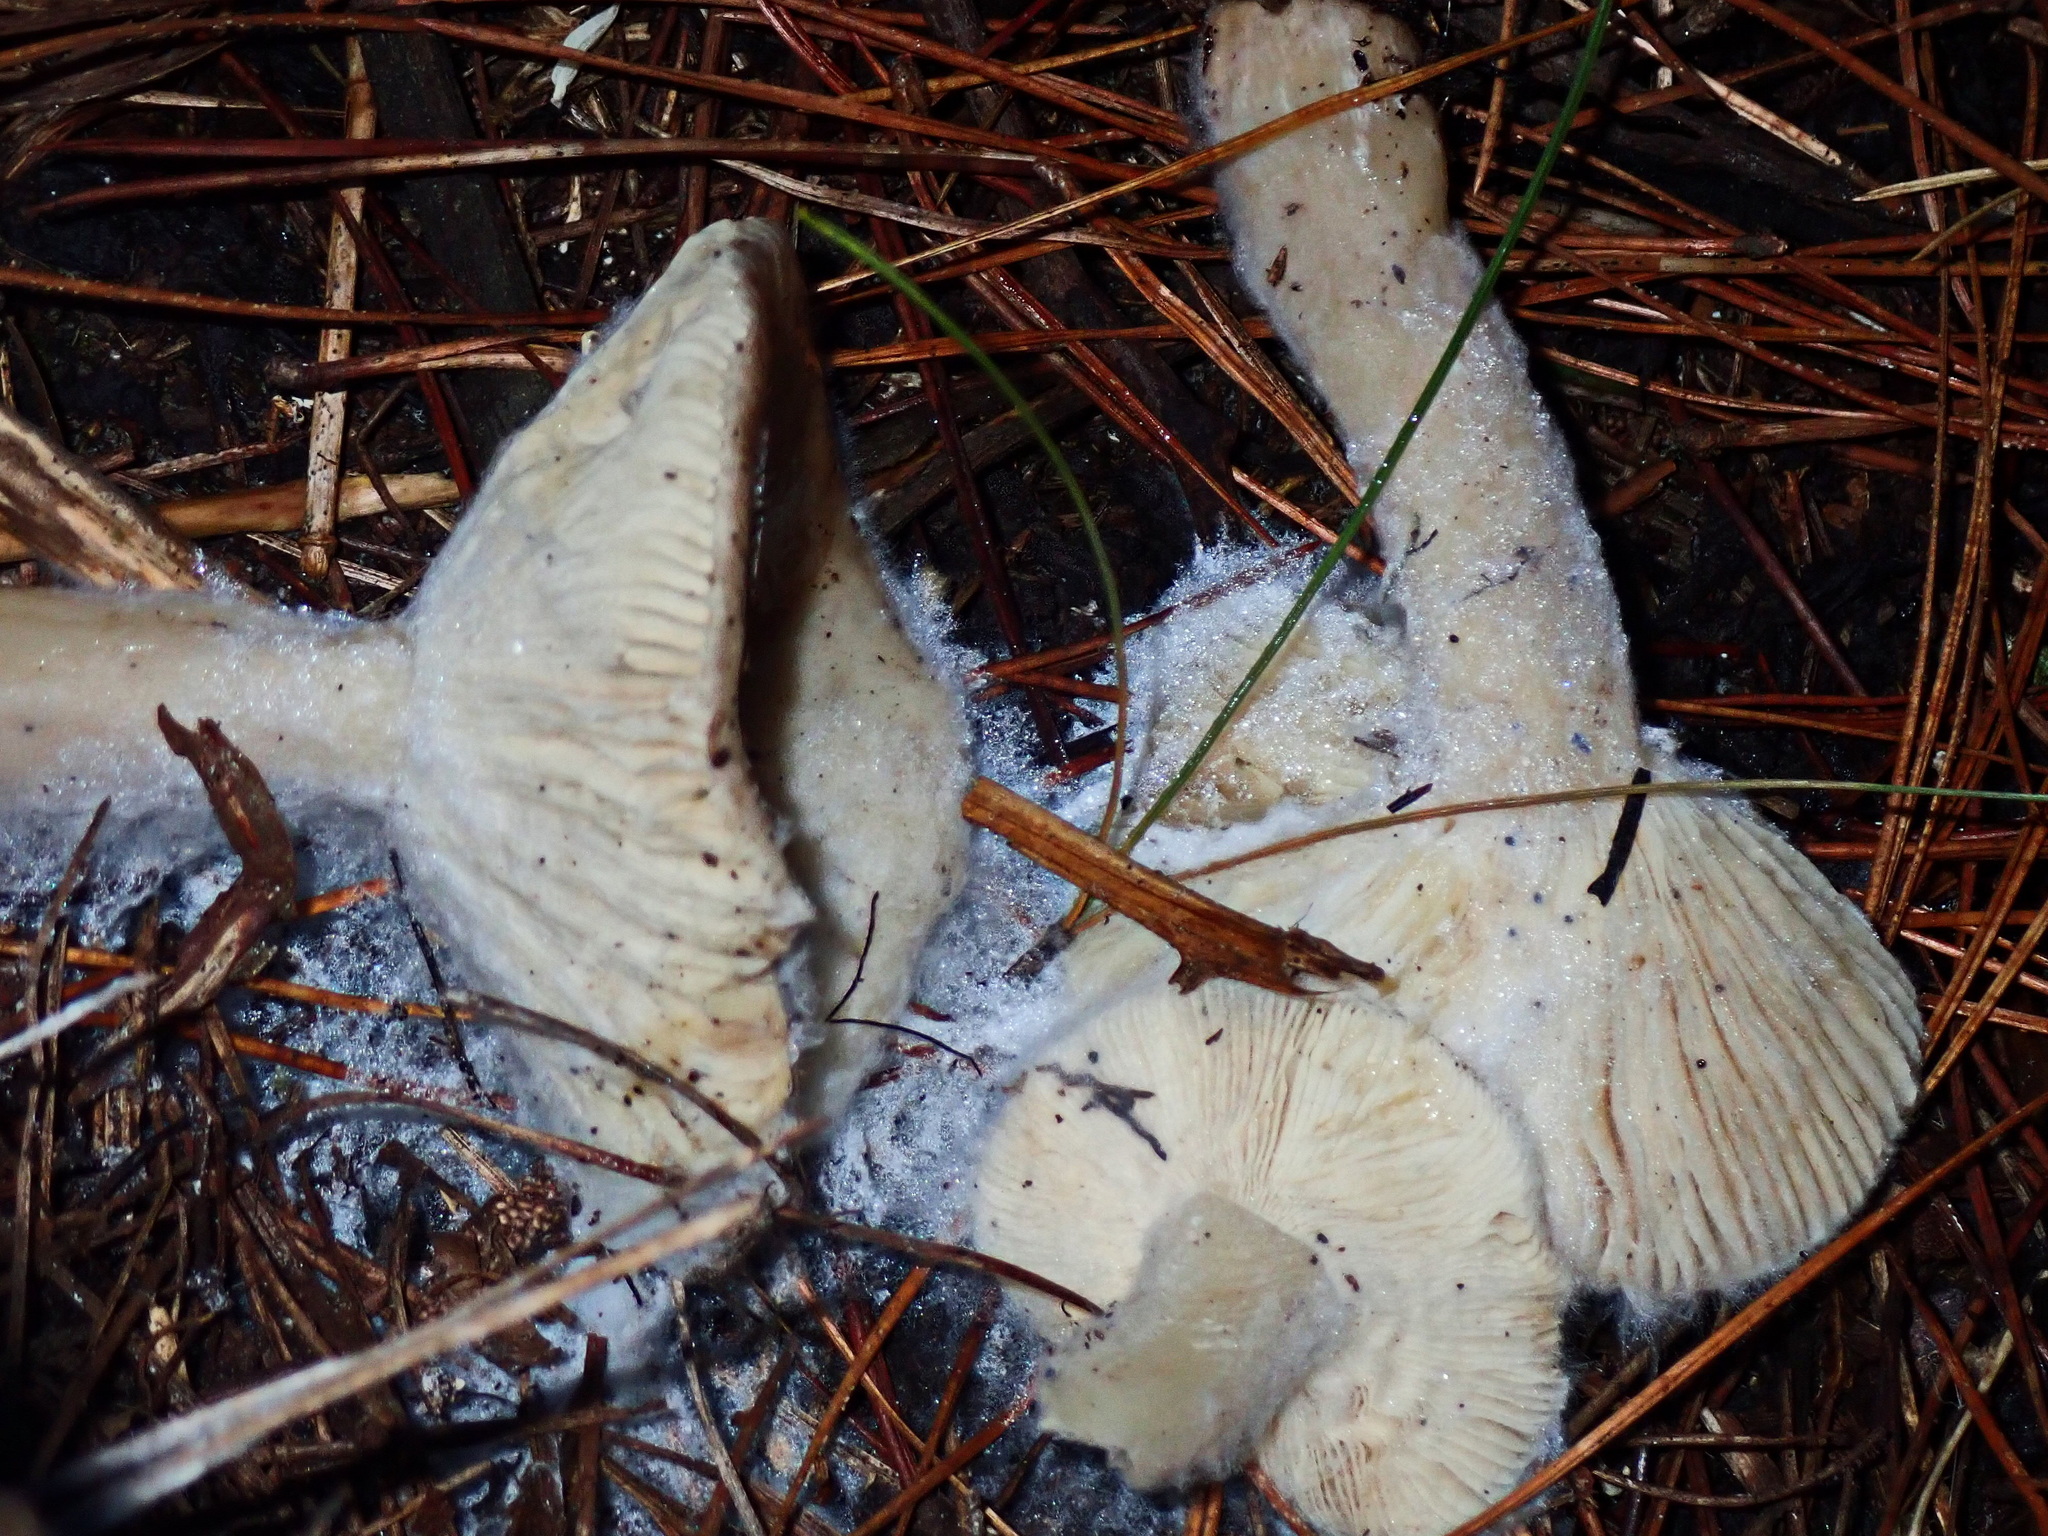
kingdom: Fungi
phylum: Basidiomycota
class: Agaricomycetes
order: Russulales
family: Russulaceae
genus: Russula
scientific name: Russula sardonia
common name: Primrose brittlegill
